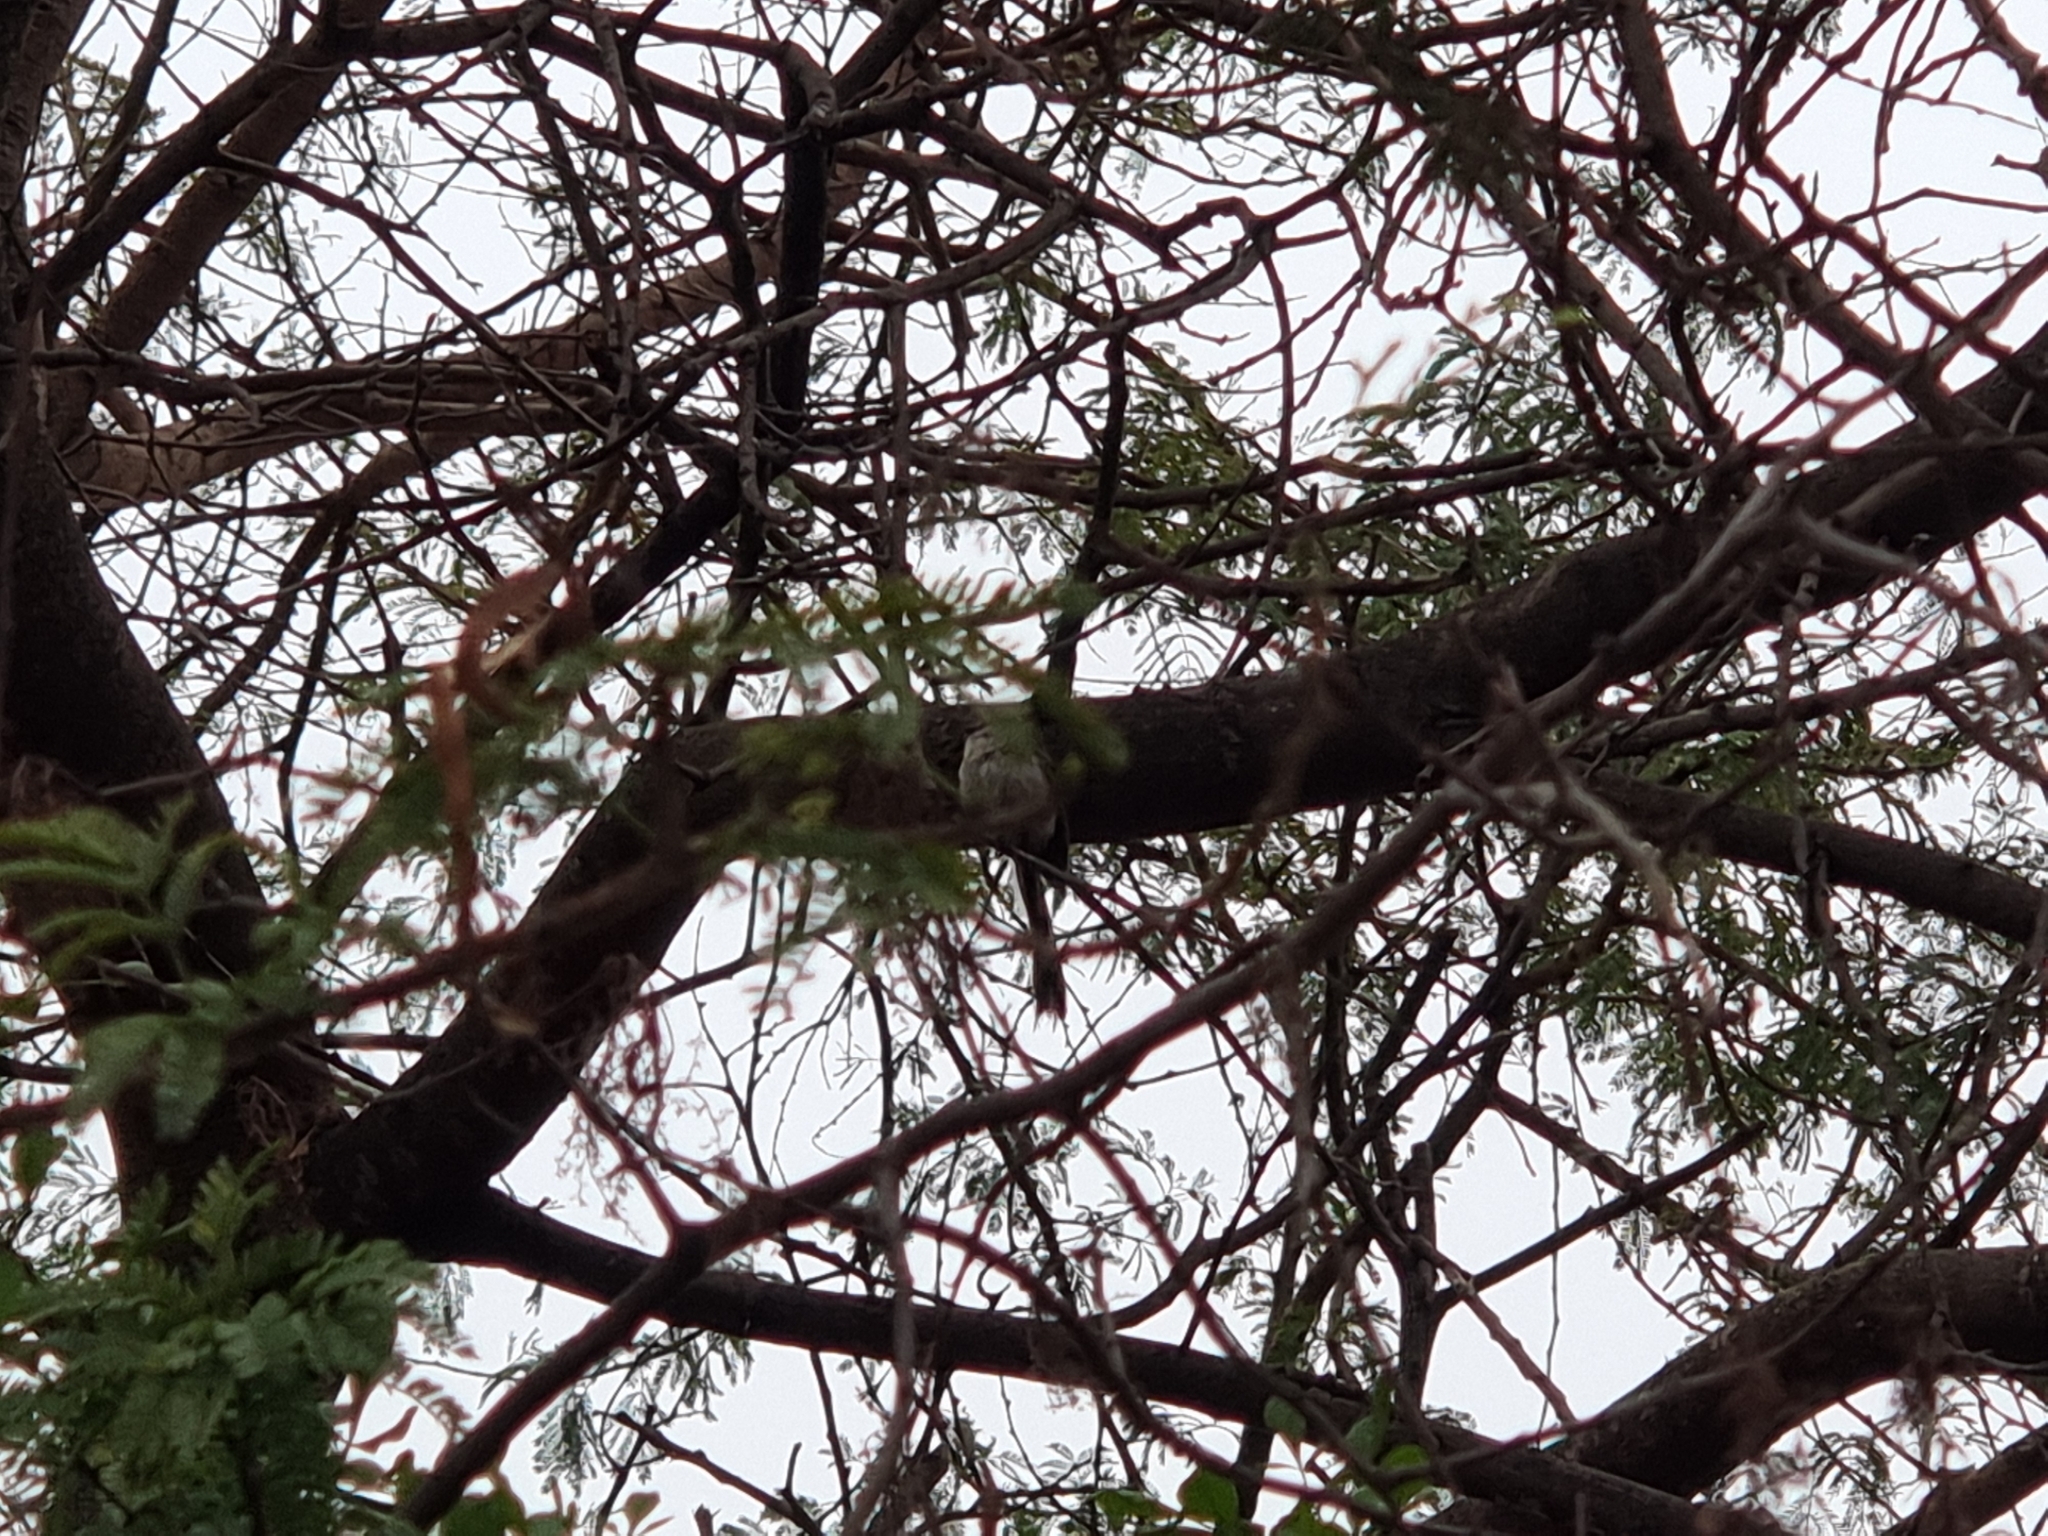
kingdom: Animalia
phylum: Chordata
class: Aves
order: Passeriformes
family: Aegithalidae
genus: Aegithalos
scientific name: Aegithalos caudatus
